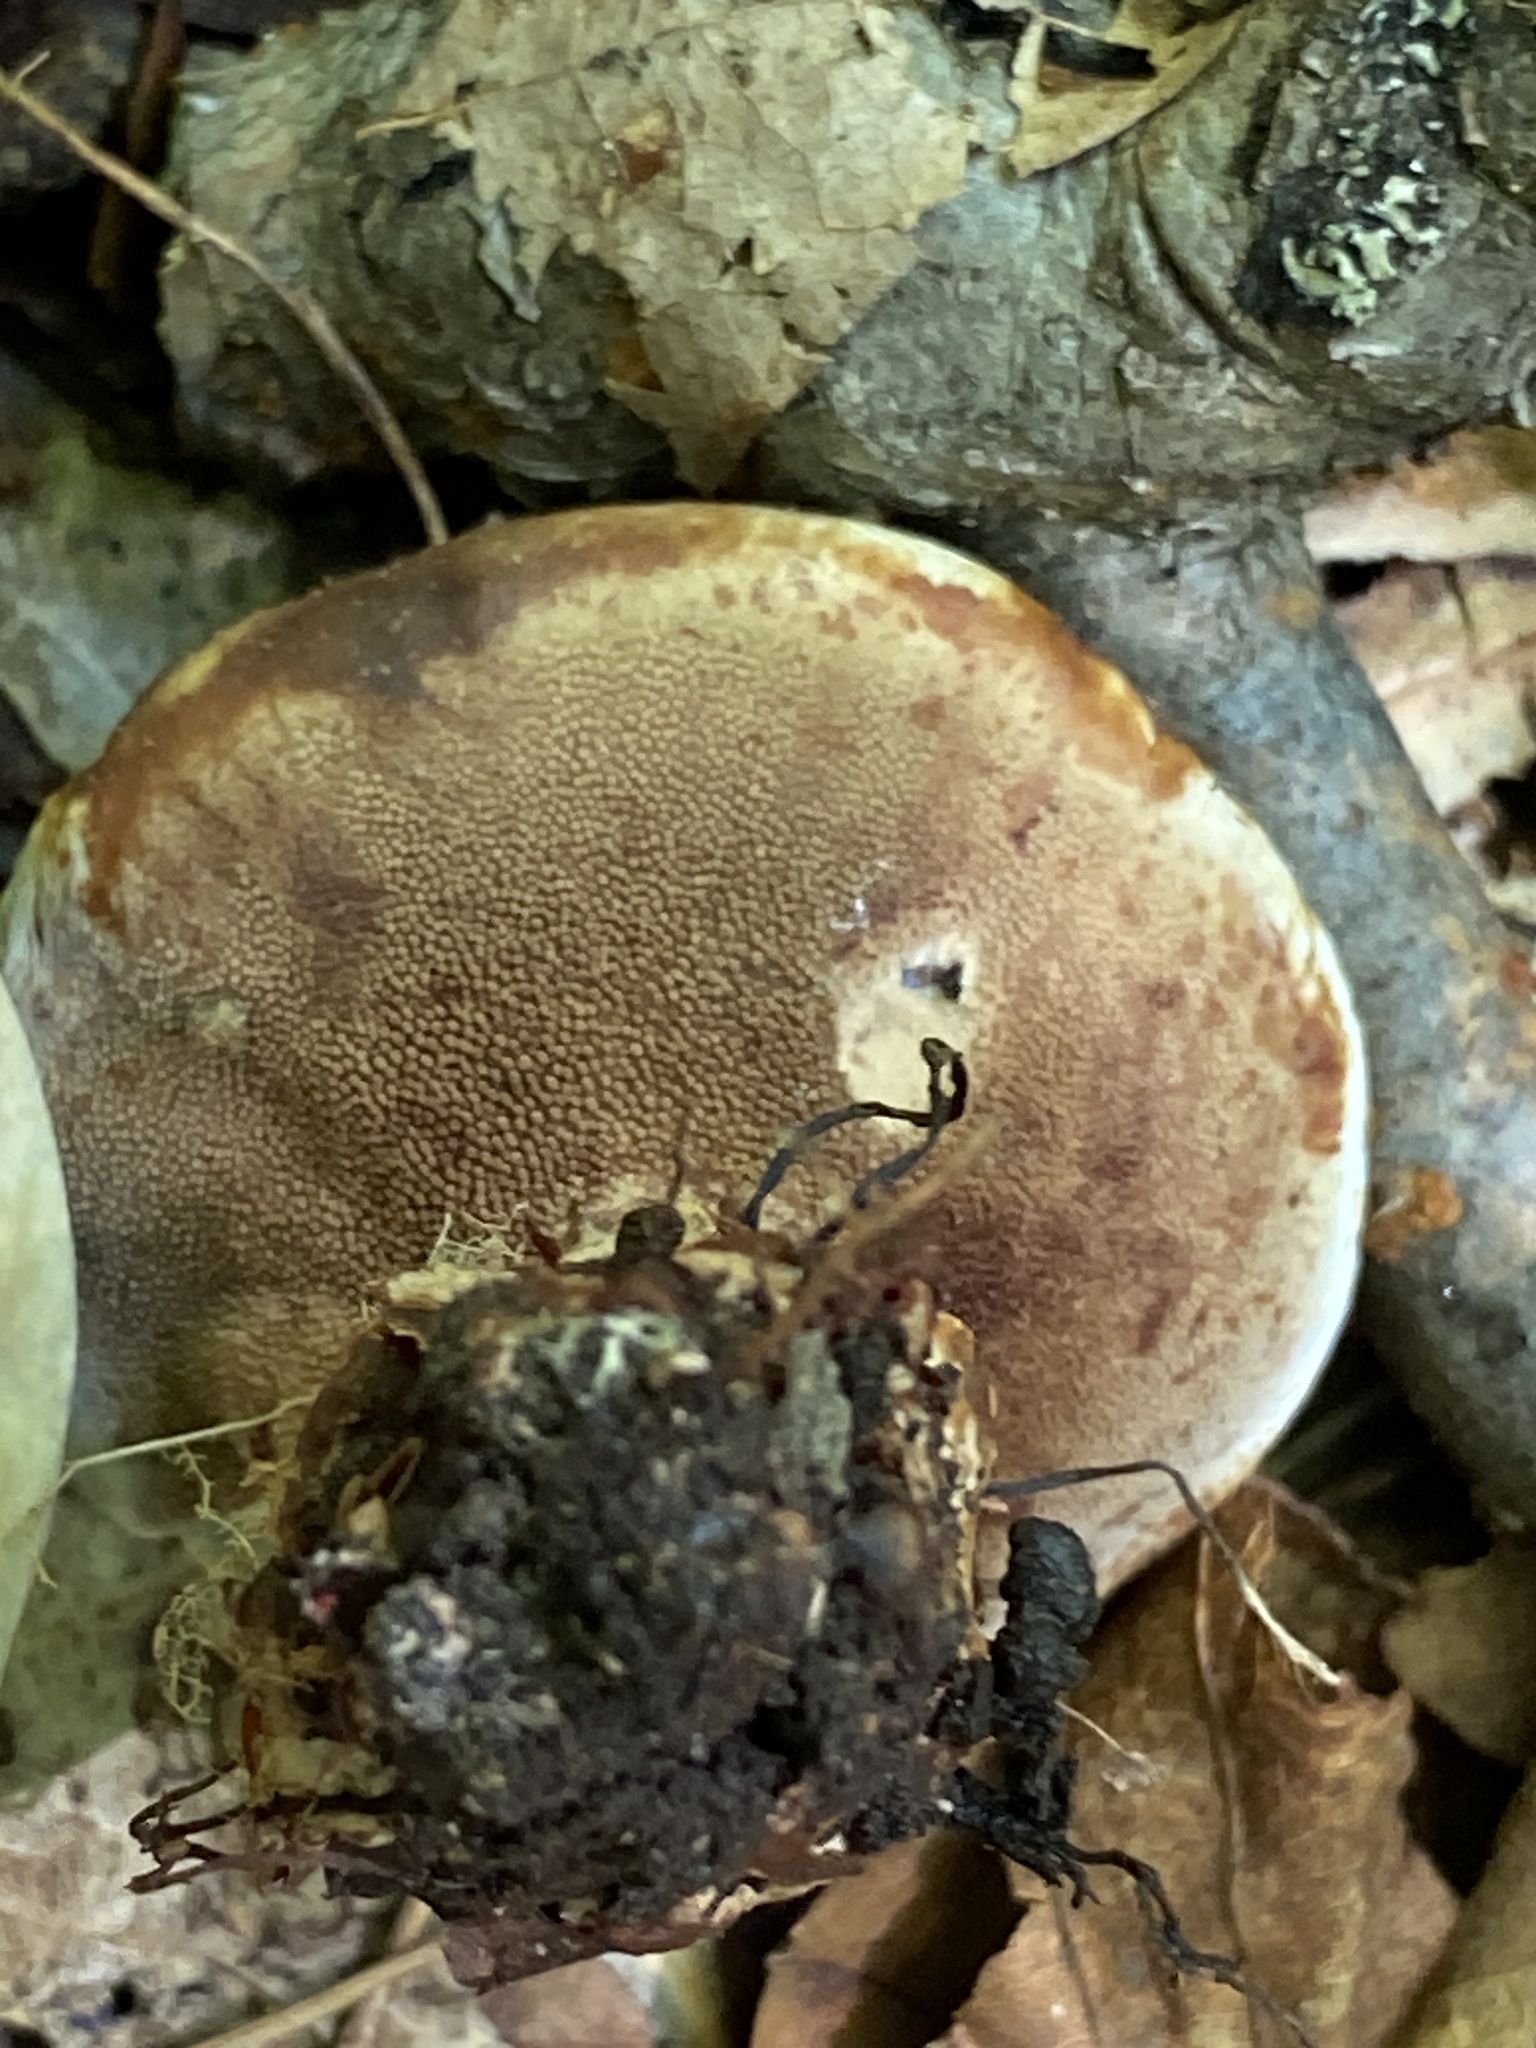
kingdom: Fungi
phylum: Basidiomycota
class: Agaricomycetes
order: Thelephorales
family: Bankeraceae
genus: Hydnellum
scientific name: Hydnellum scrobiculatum
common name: Ridged tooth
